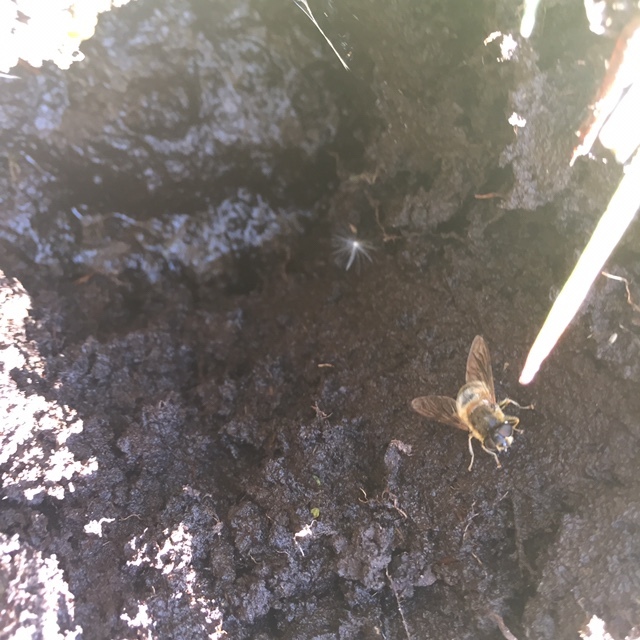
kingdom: Animalia
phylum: Arthropoda
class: Insecta
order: Diptera
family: Syrphidae
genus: Eristalis
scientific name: Eristalis pertinax
